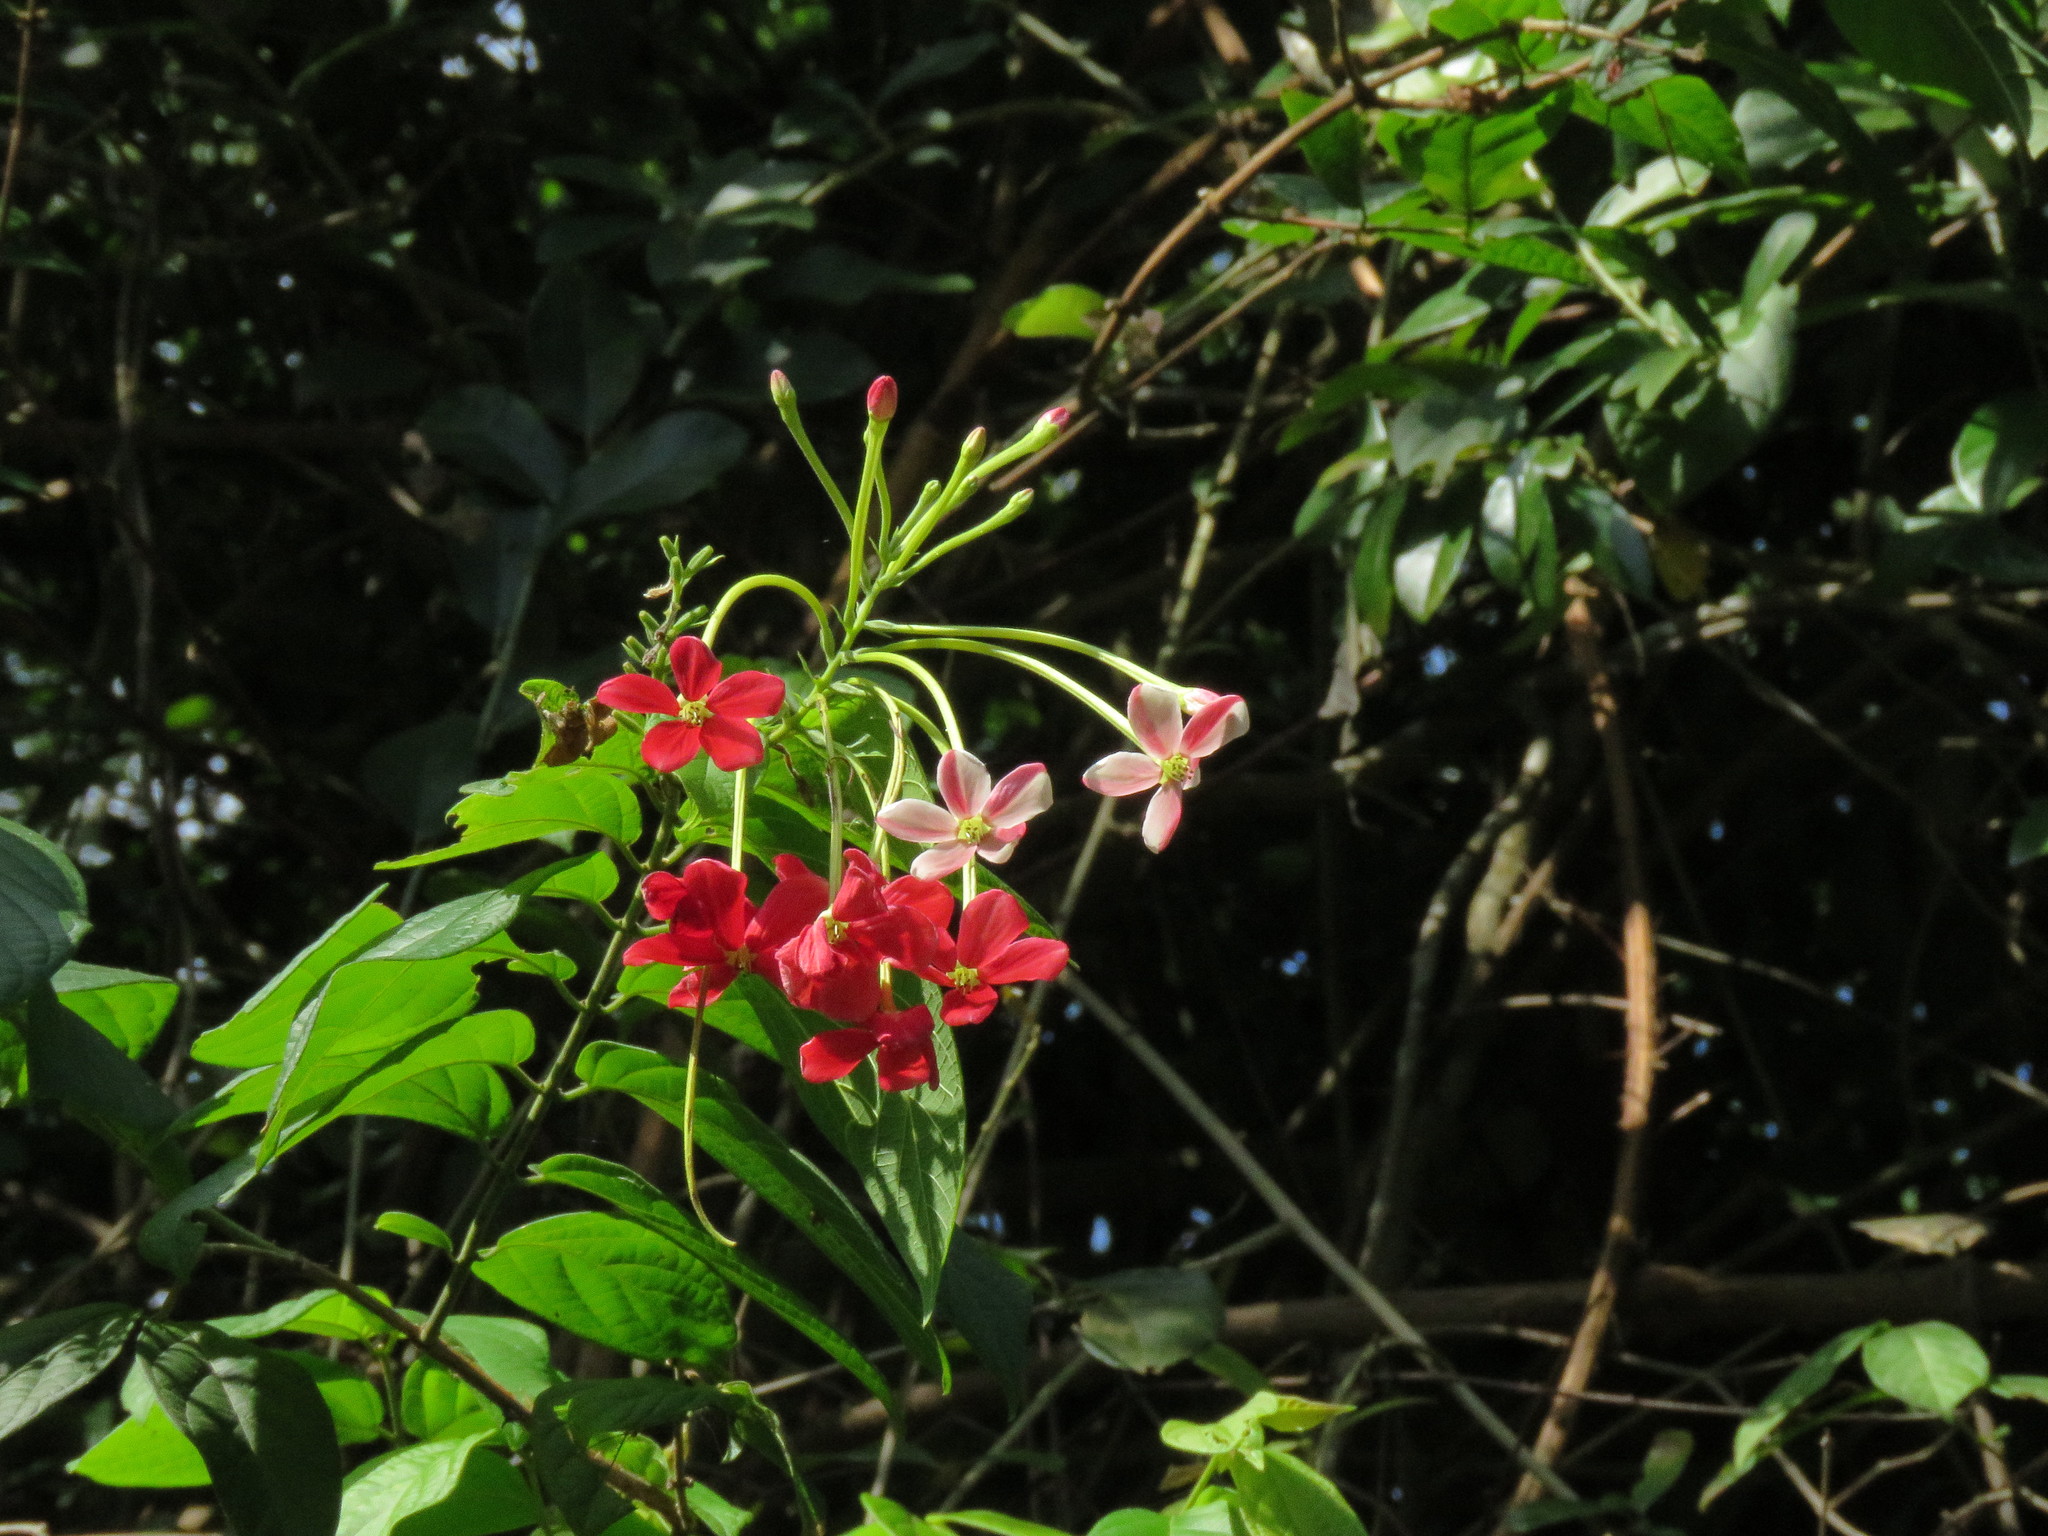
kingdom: Plantae
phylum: Tracheophyta
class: Magnoliopsida
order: Myrtales
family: Combretaceae
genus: Combretum
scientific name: Combretum indicum
